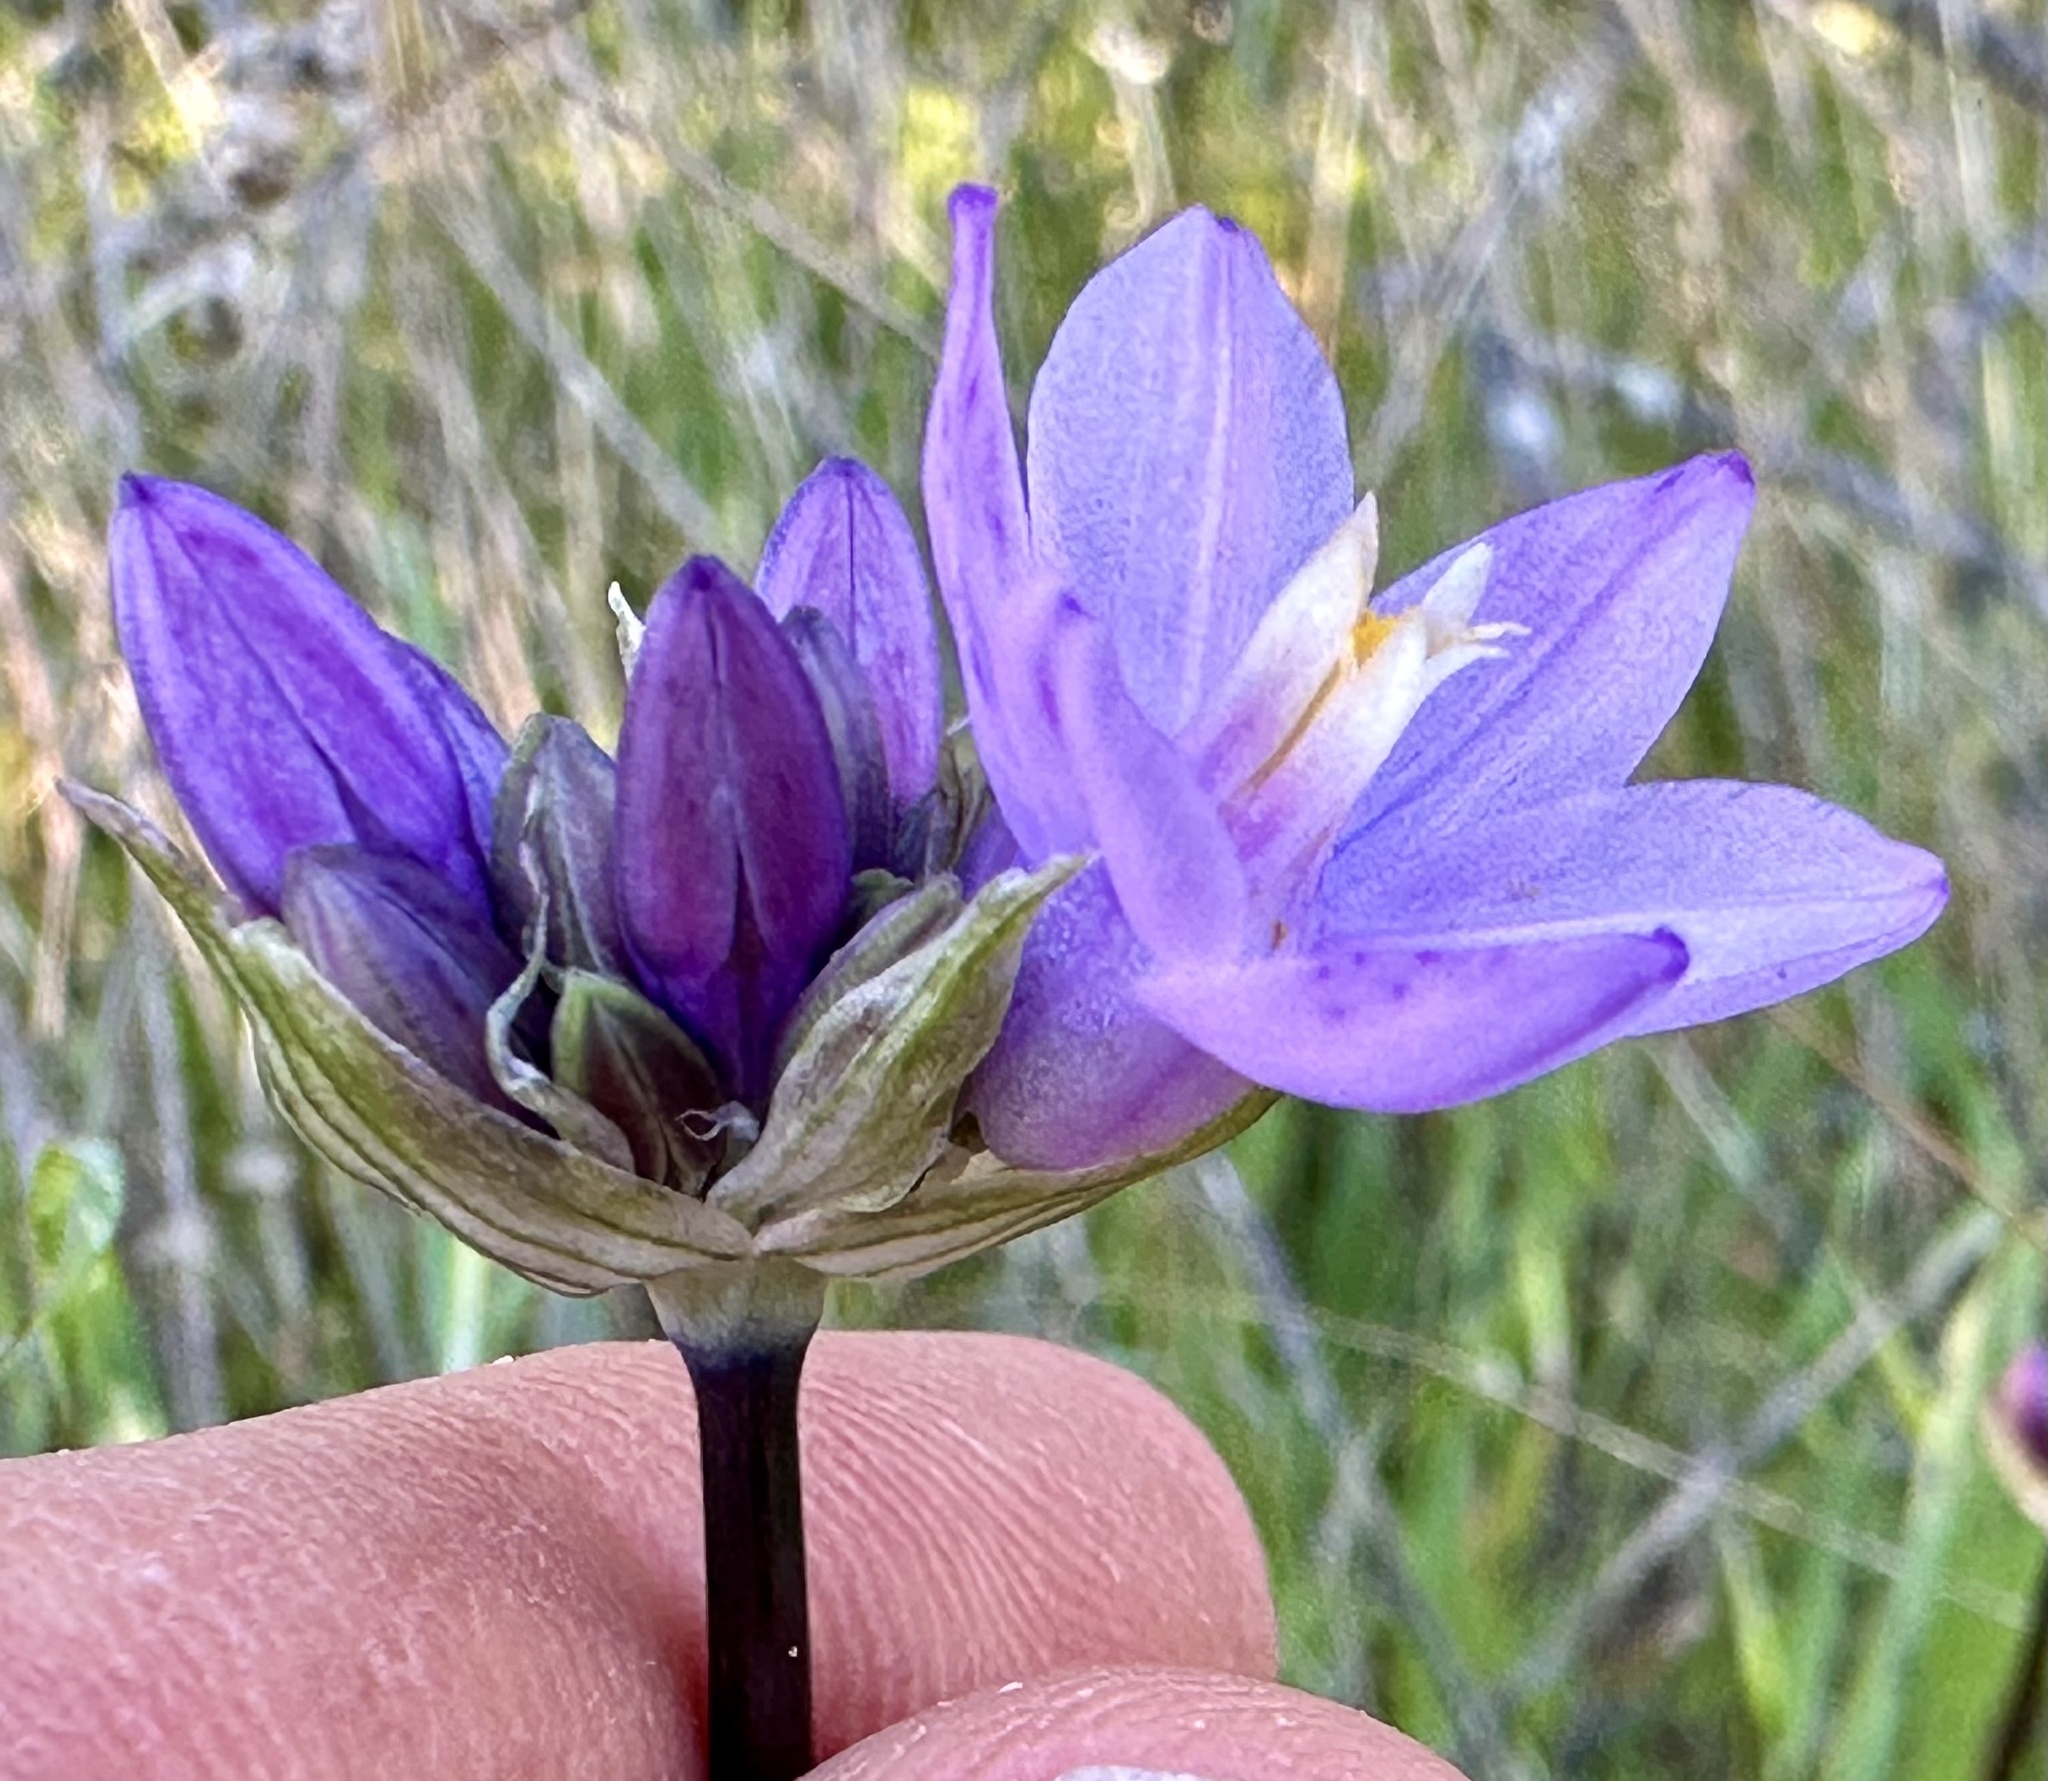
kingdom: Plantae
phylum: Tracheophyta
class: Liliopsida
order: Asparagales
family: Asparagaceae
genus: Dipterostemon
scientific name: Dipterostemon capitatus
